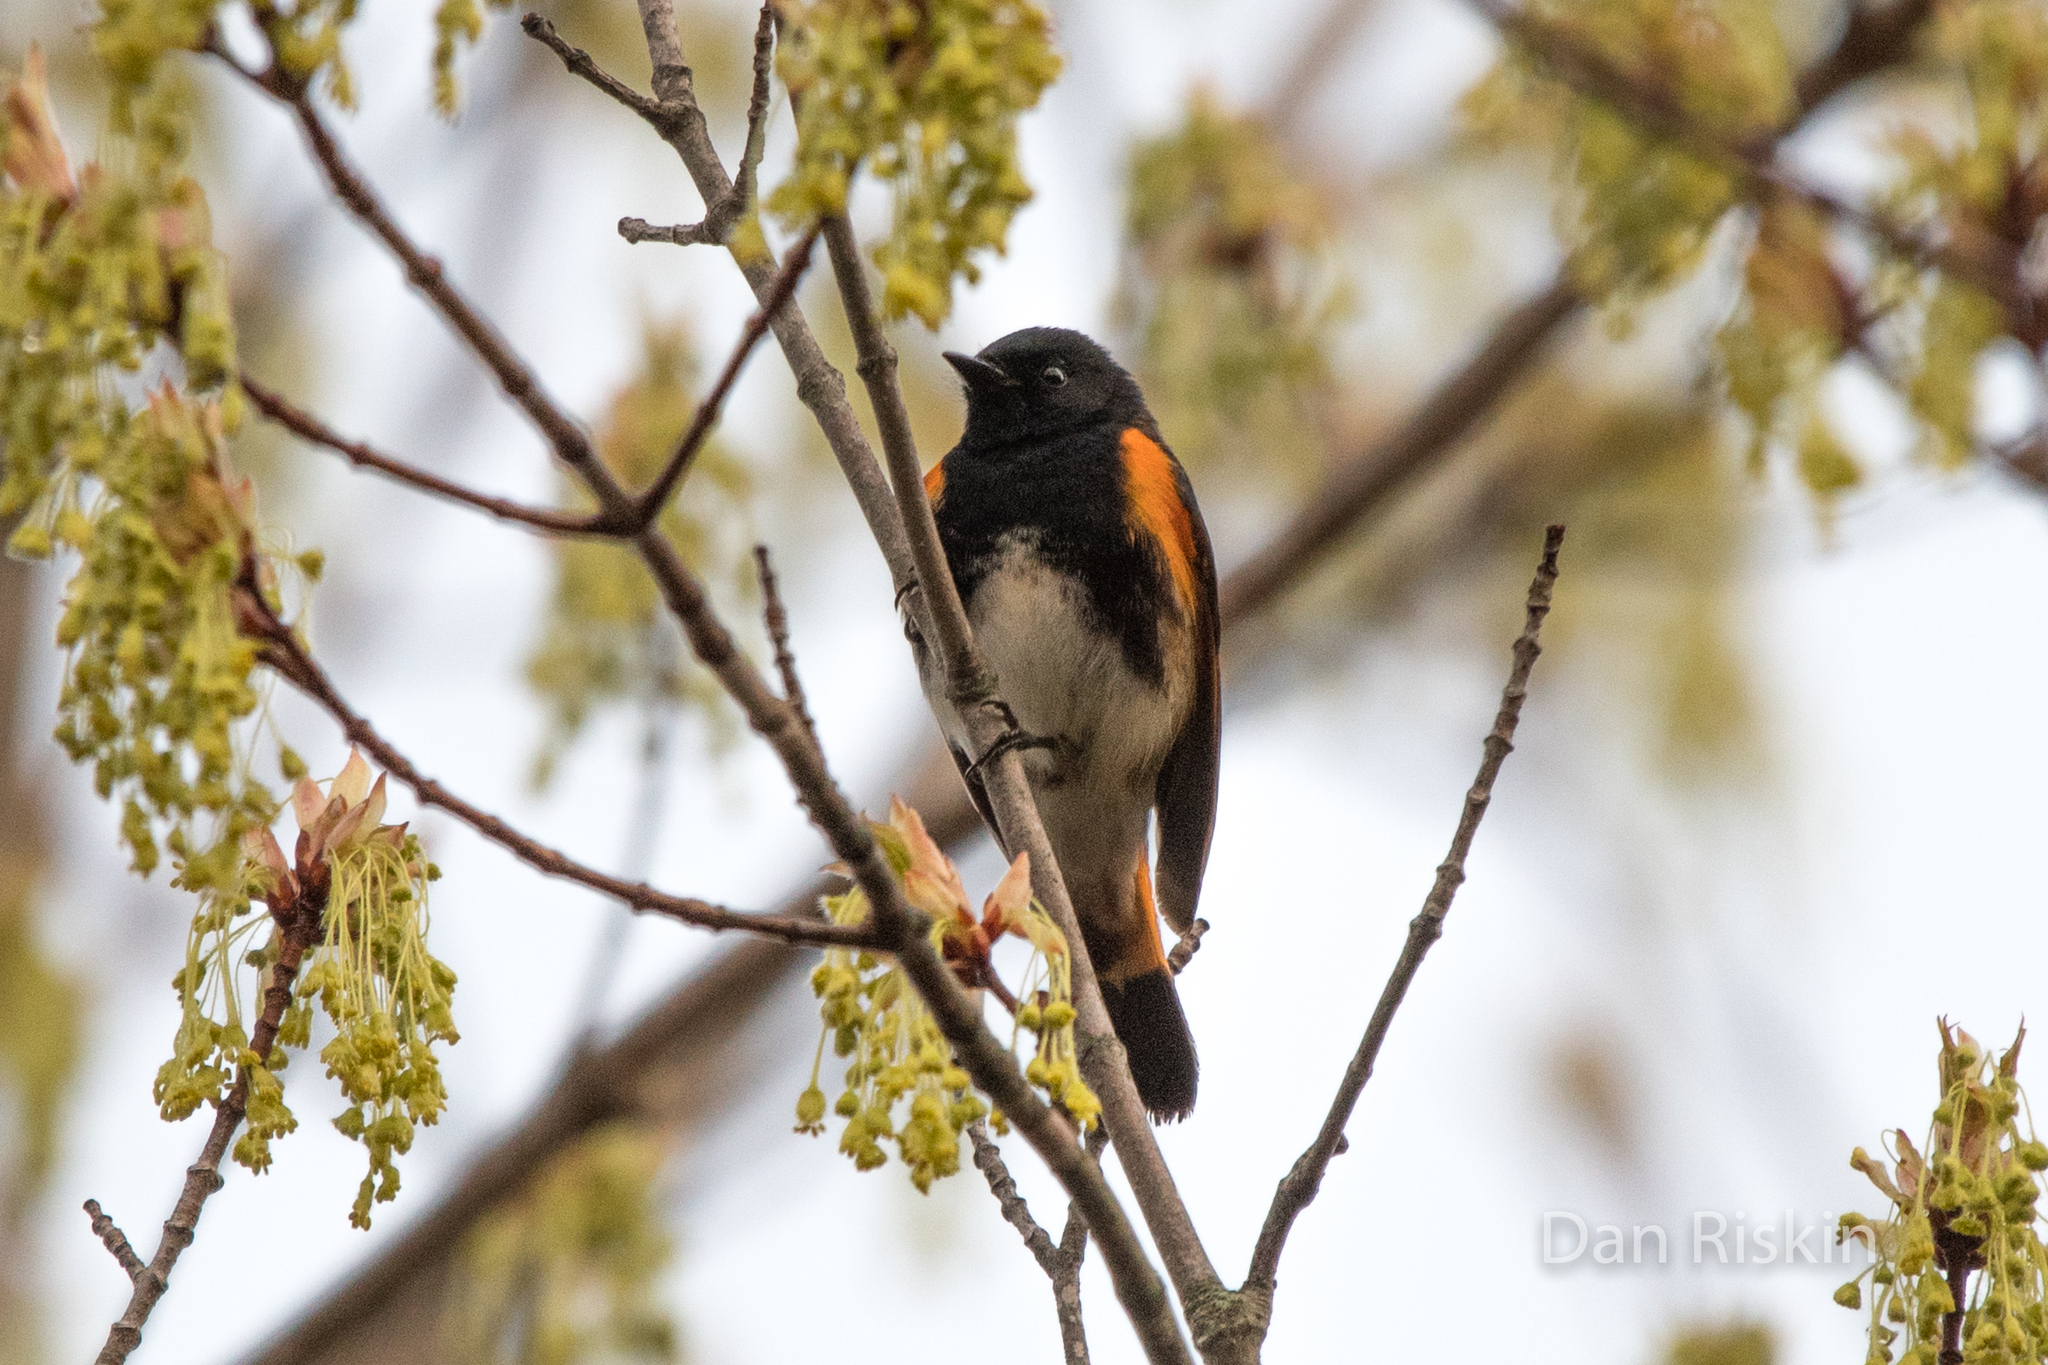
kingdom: Animalia
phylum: Chordata
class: Aves
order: Passeriformes
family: Parulidae
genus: Setophaga
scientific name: Setophaga ruticilla
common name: American redstart
